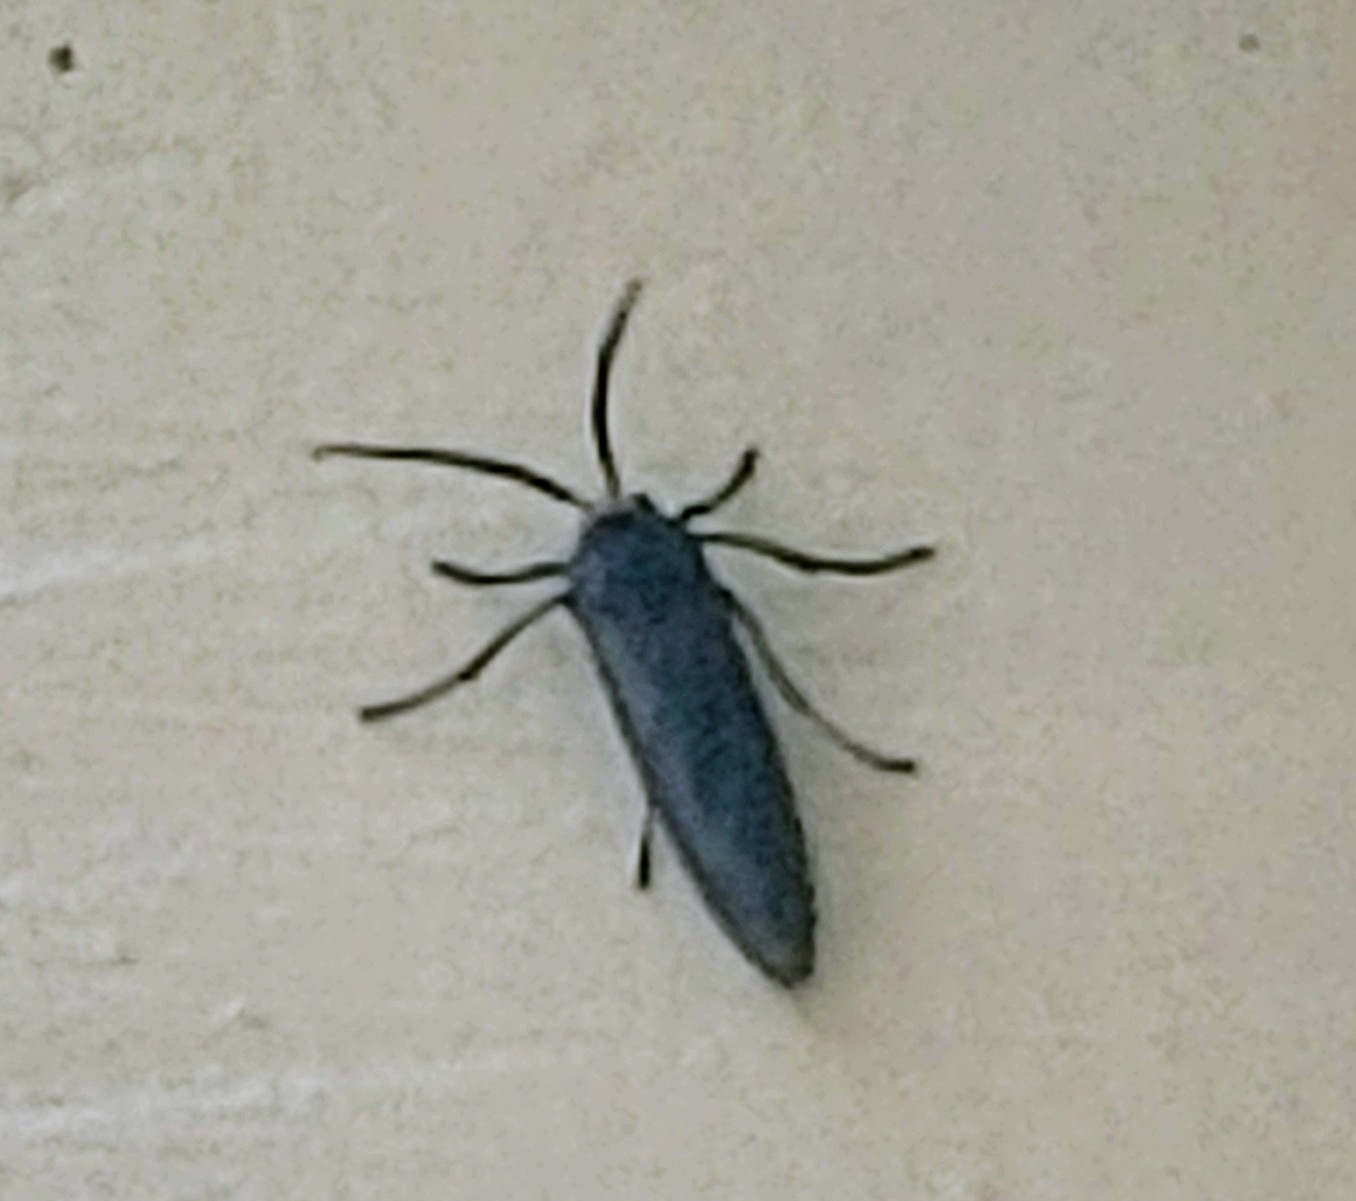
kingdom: Animalia
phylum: Arthropoda
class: Insecta
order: Lepidoptera
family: Erebidae
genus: Lymire
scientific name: Lymire edwardsii
